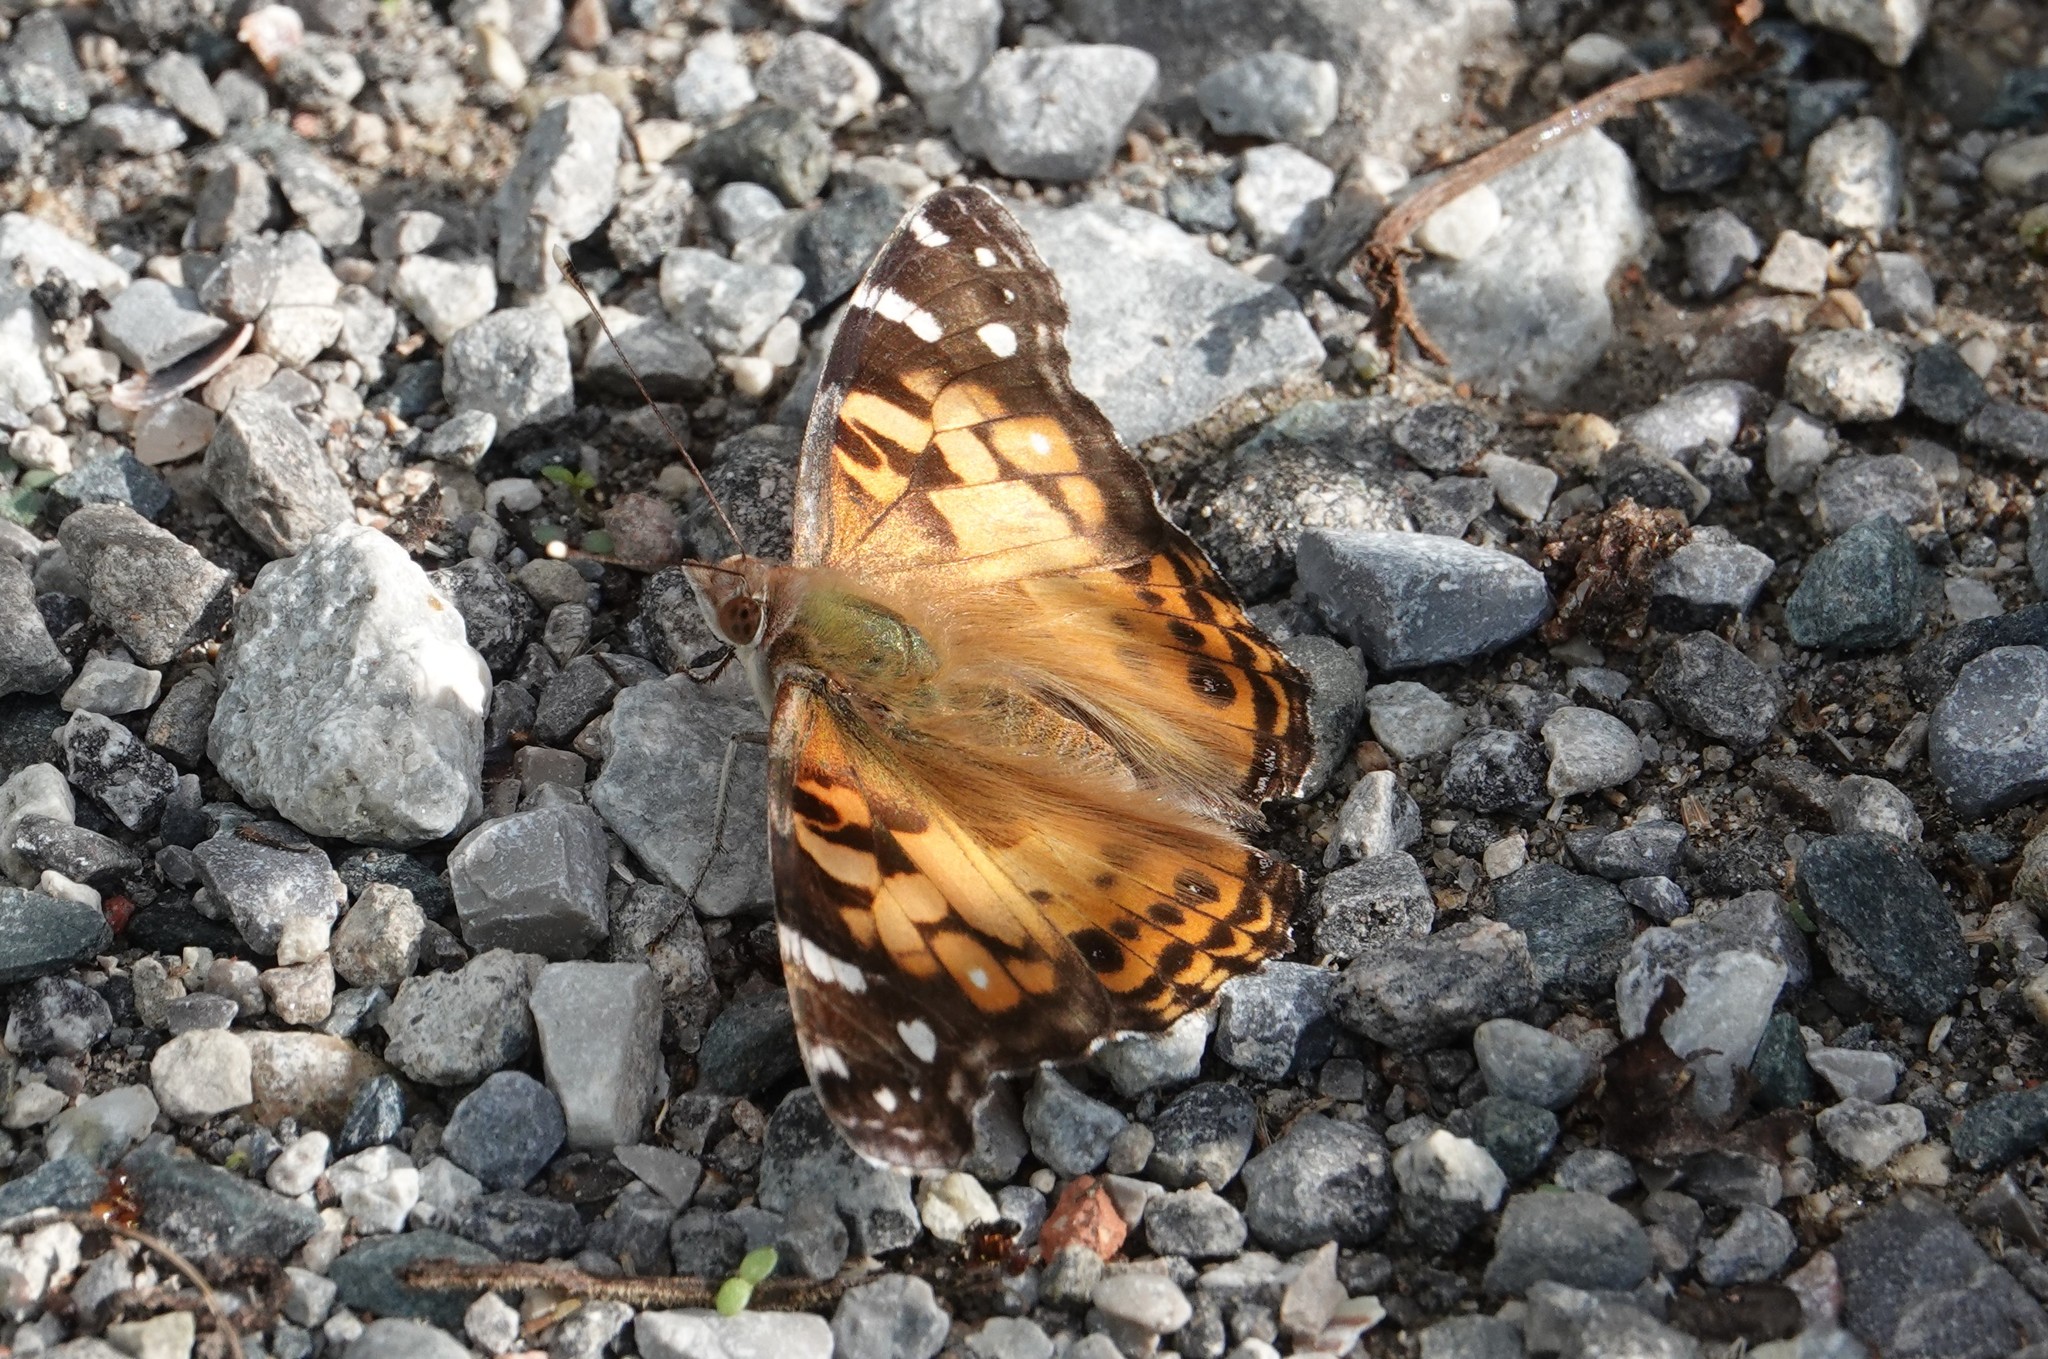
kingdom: Animalia
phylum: Arthropoda
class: Insecta
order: Lepidoptera
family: Nymphalidae
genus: Vanessa
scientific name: Vanessa virginiensis
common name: American lady
